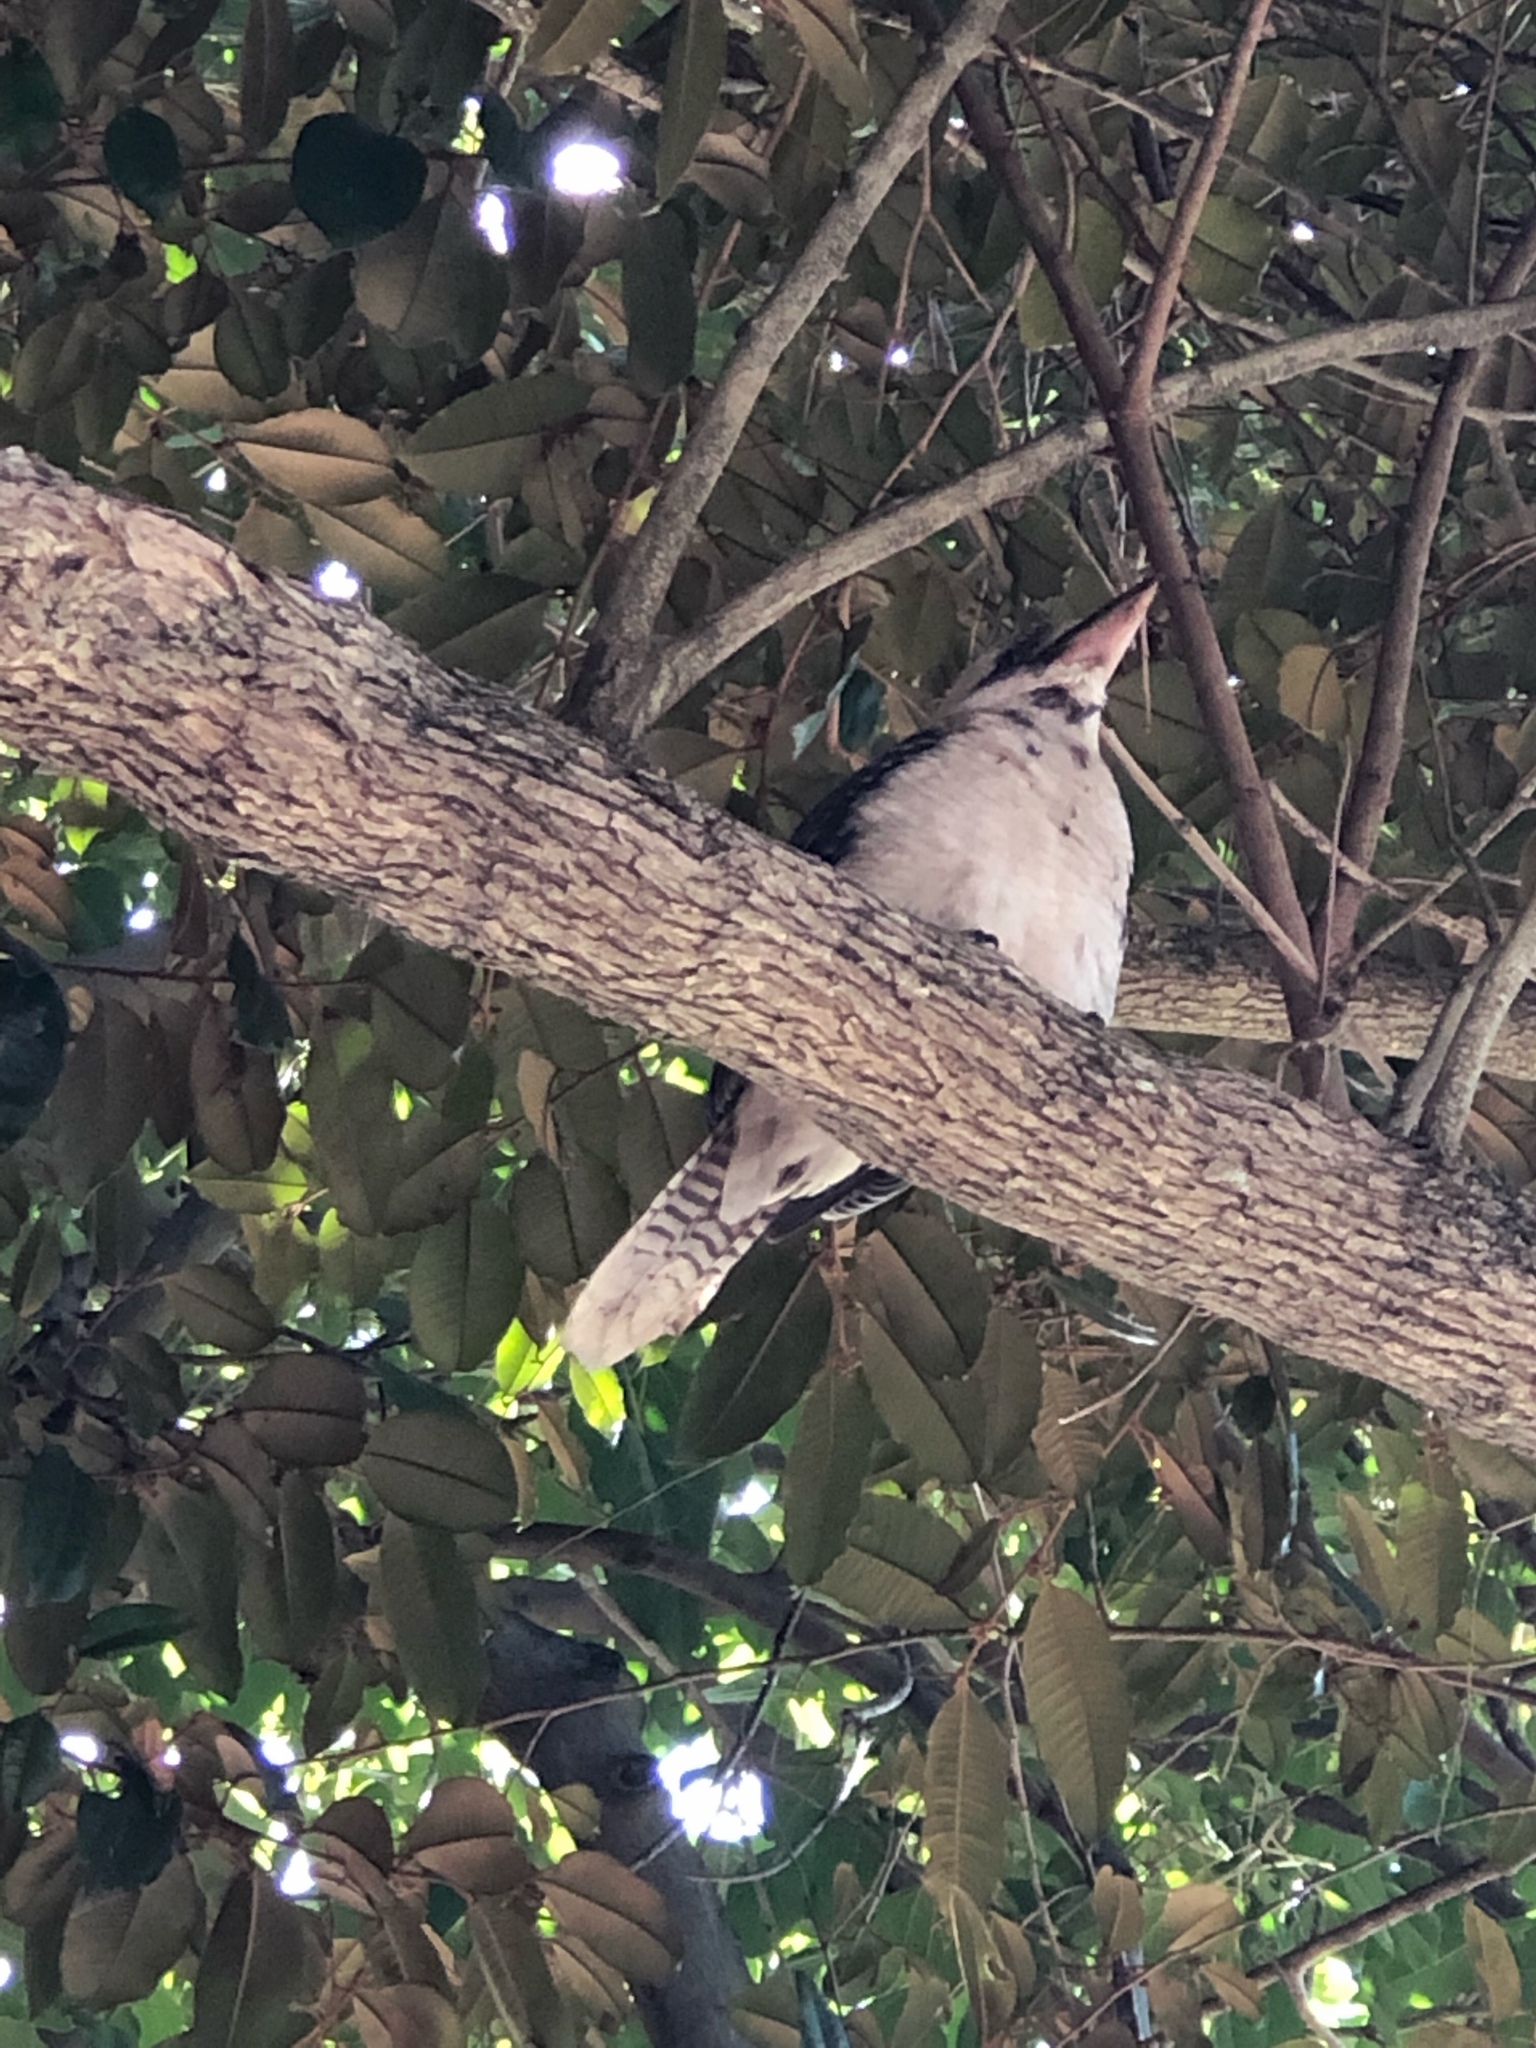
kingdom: Animalia
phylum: Chordata
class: Aves
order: Coraciiformes
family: Alcedinidae
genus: Dacelo
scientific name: Dacelo novaeguineae
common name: Laughing kookaburra
